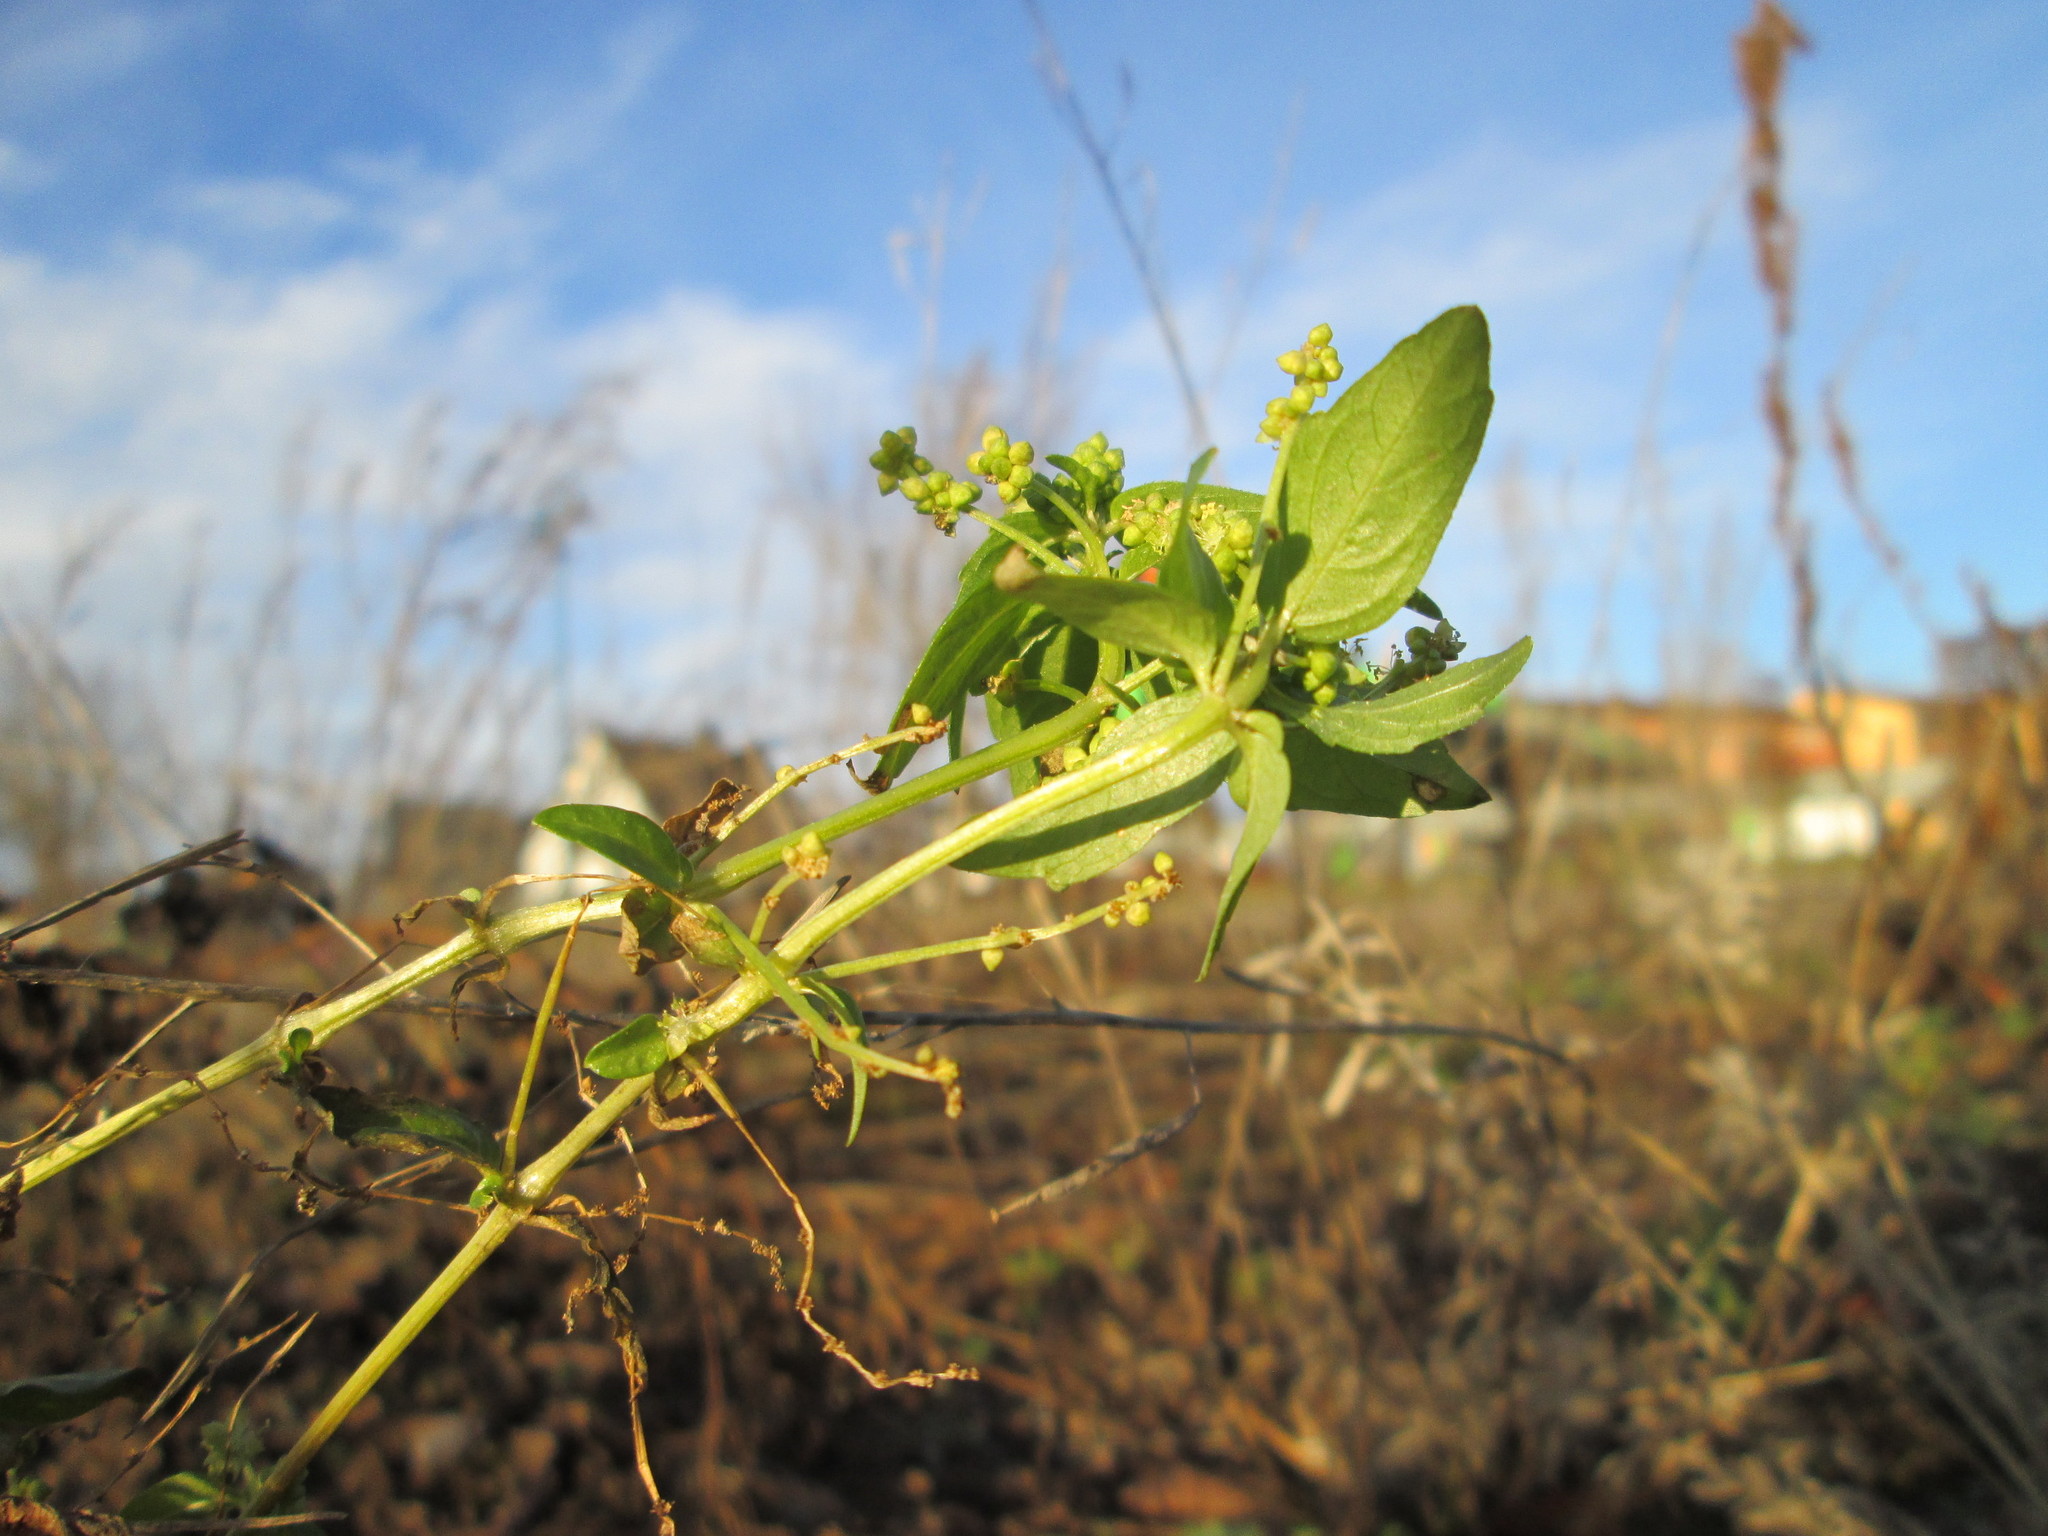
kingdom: Plantae
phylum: Tracheophyta
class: Magnoliopsida
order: Malpighiales
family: Euphorbiaceae
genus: Mercurialis
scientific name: Mercurialis annua
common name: Annual mercury
